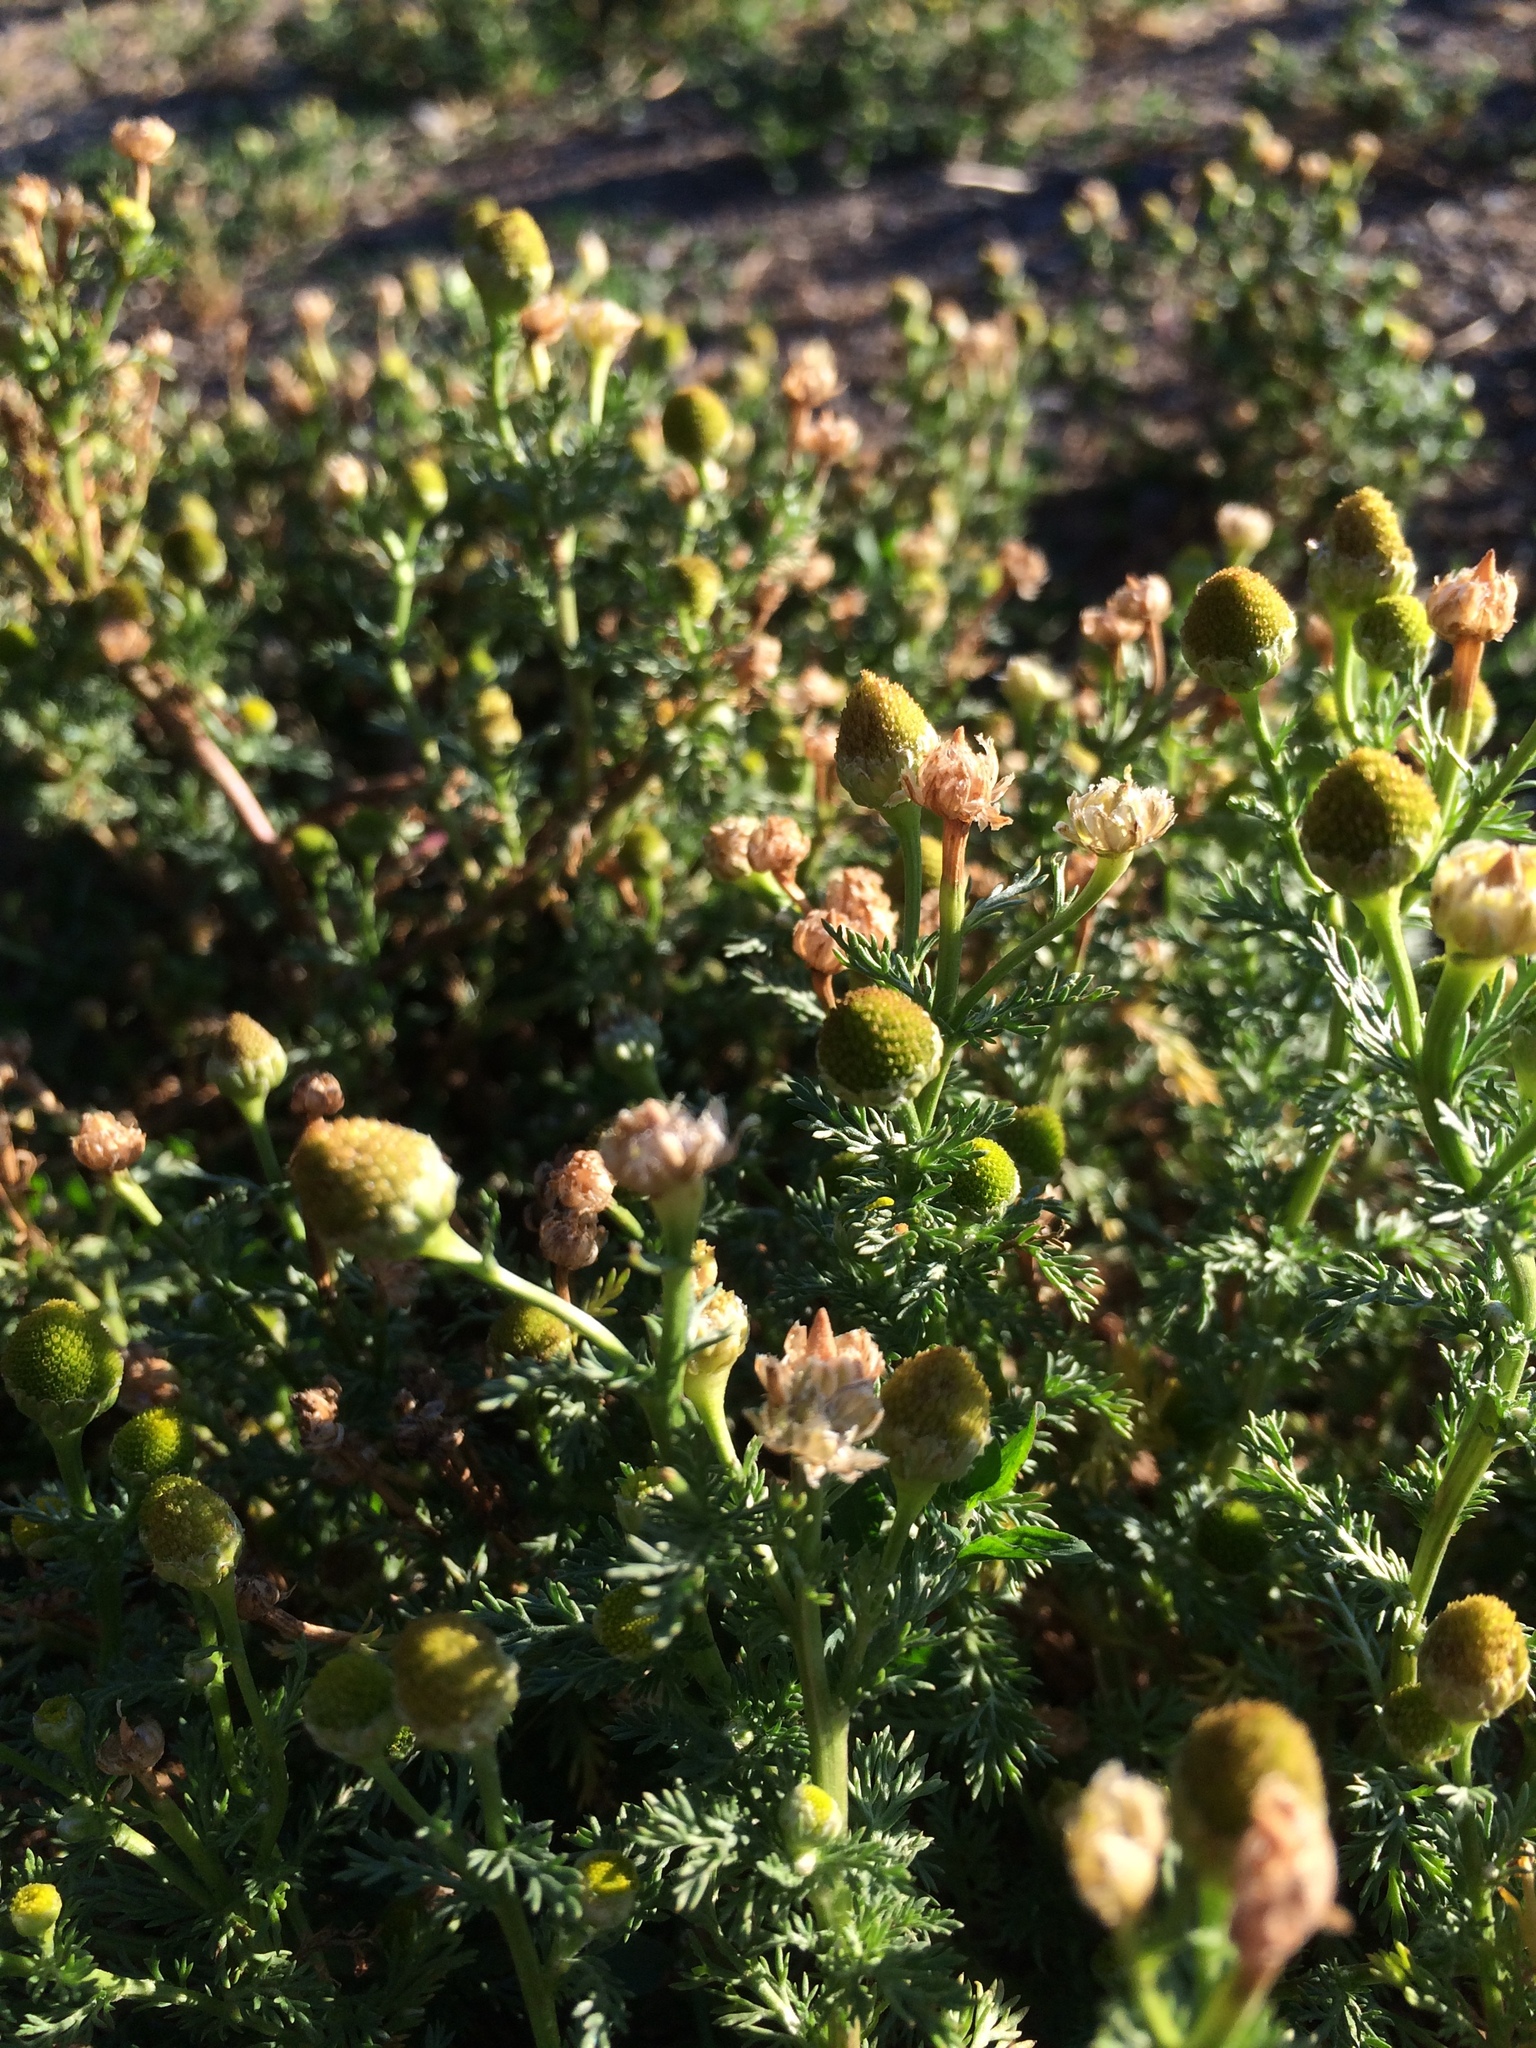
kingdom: Plantae
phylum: Tracheophyta
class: Magnoliopsida
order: Asterales
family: Asteraceae
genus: Matricaria
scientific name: Matricaria discoidea
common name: Disc mayweed
